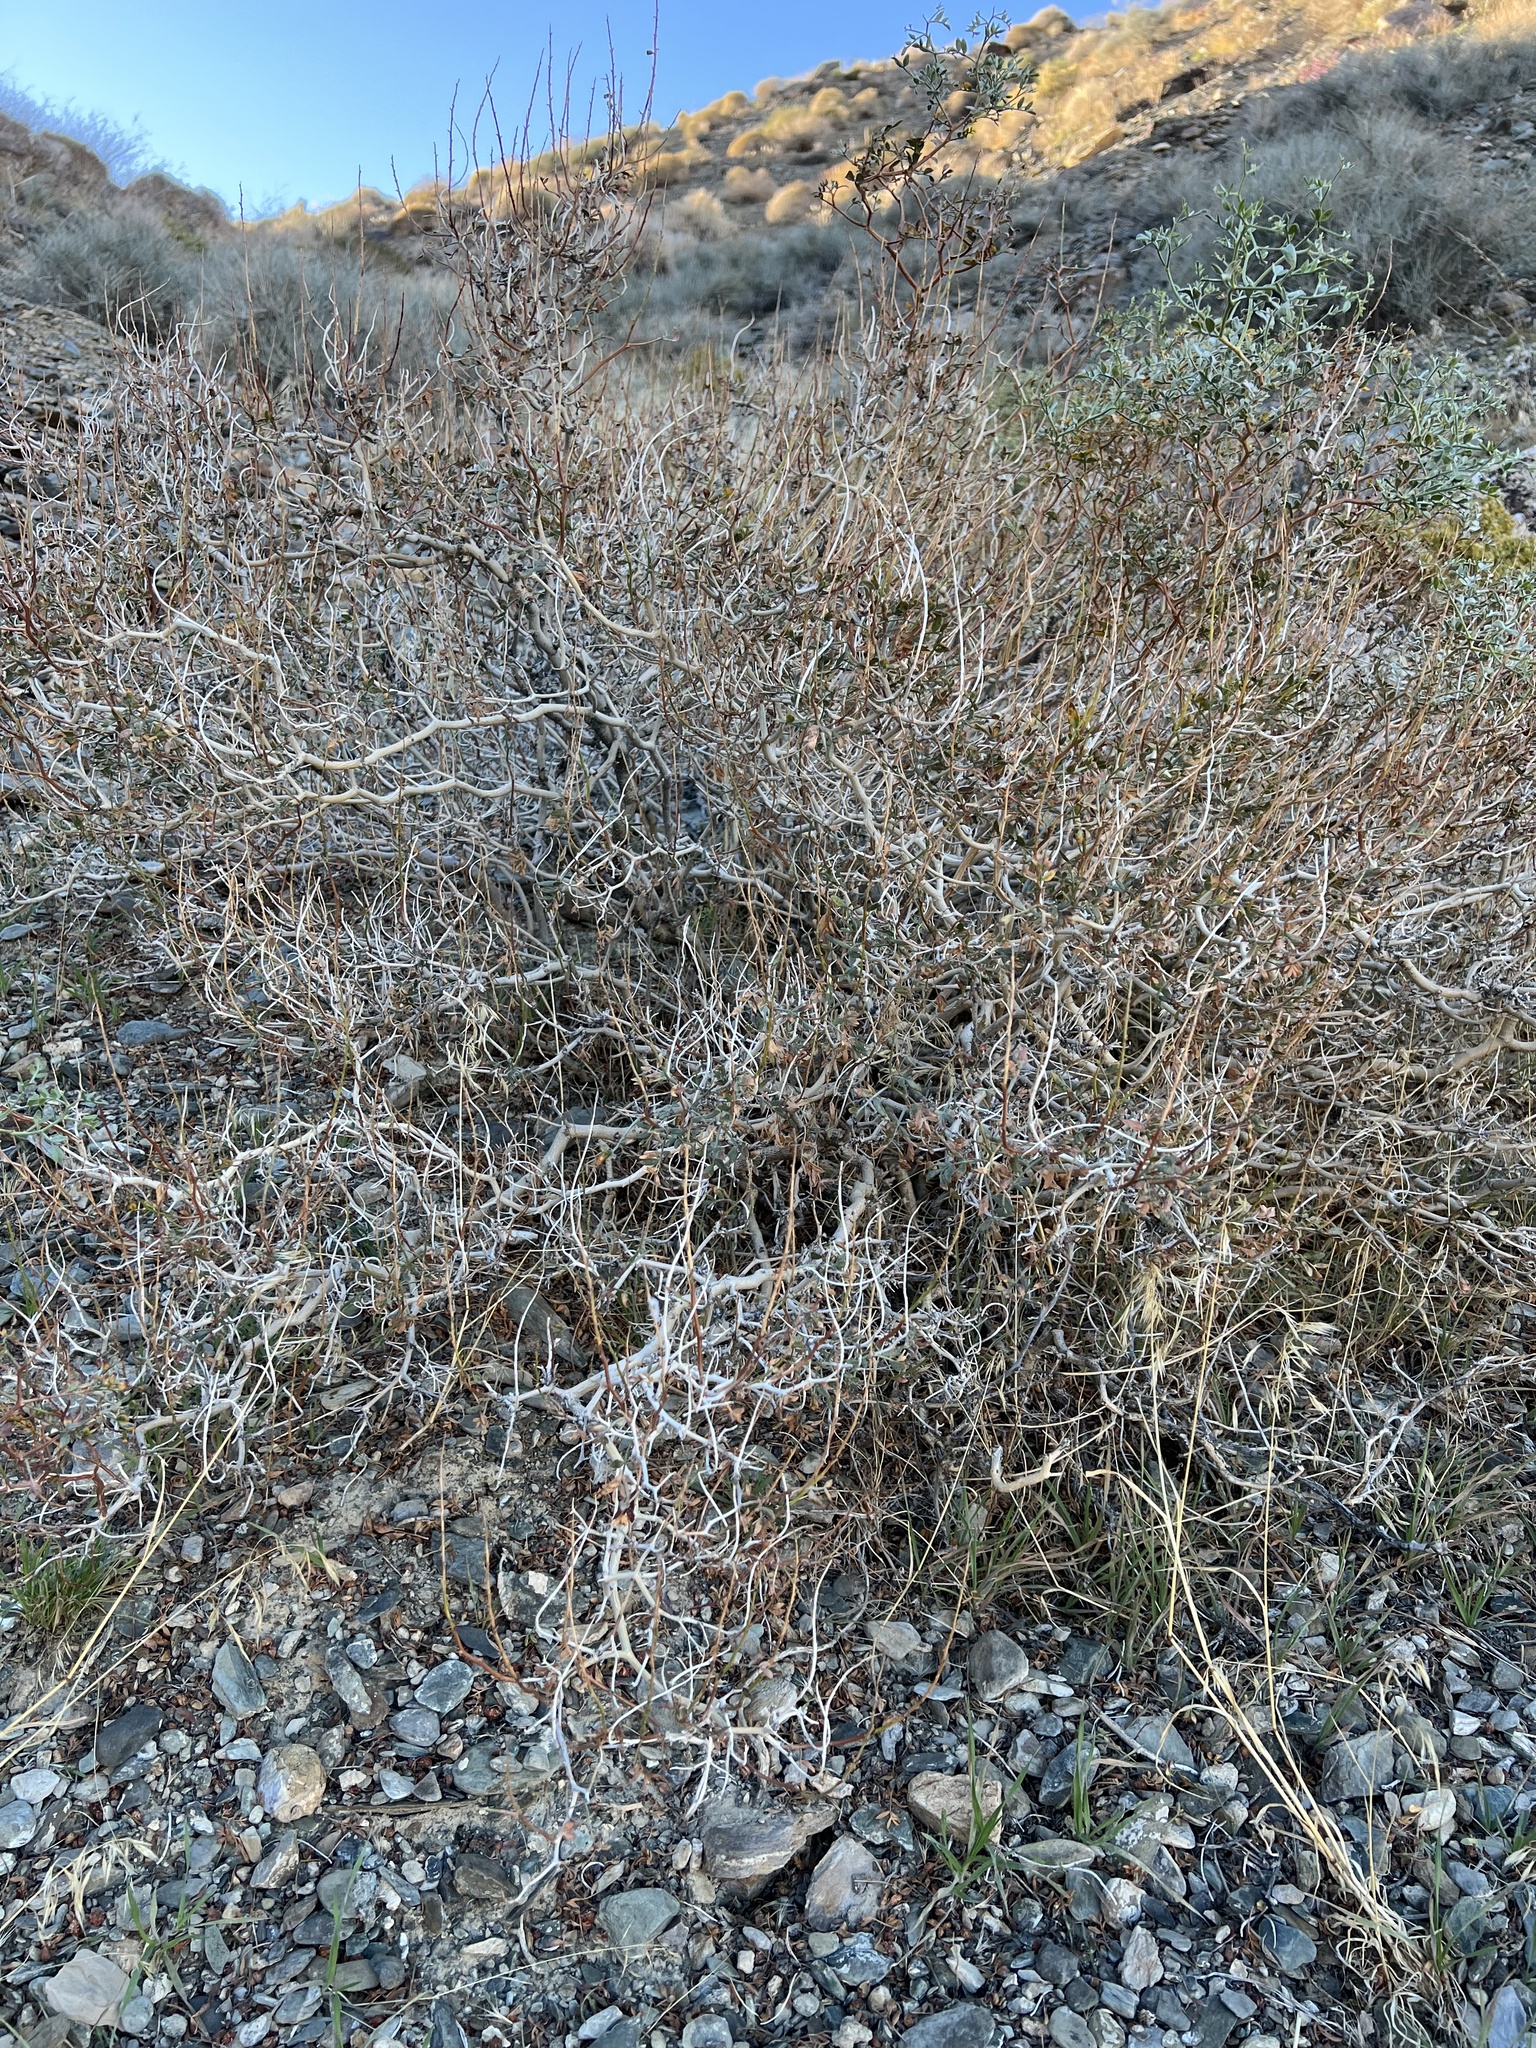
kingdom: Plantae
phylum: Tracheophyta
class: Magnoliopsida
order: Fabales
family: Fabaceae
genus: Psorothamnus
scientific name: Psorothamnus arborescens
